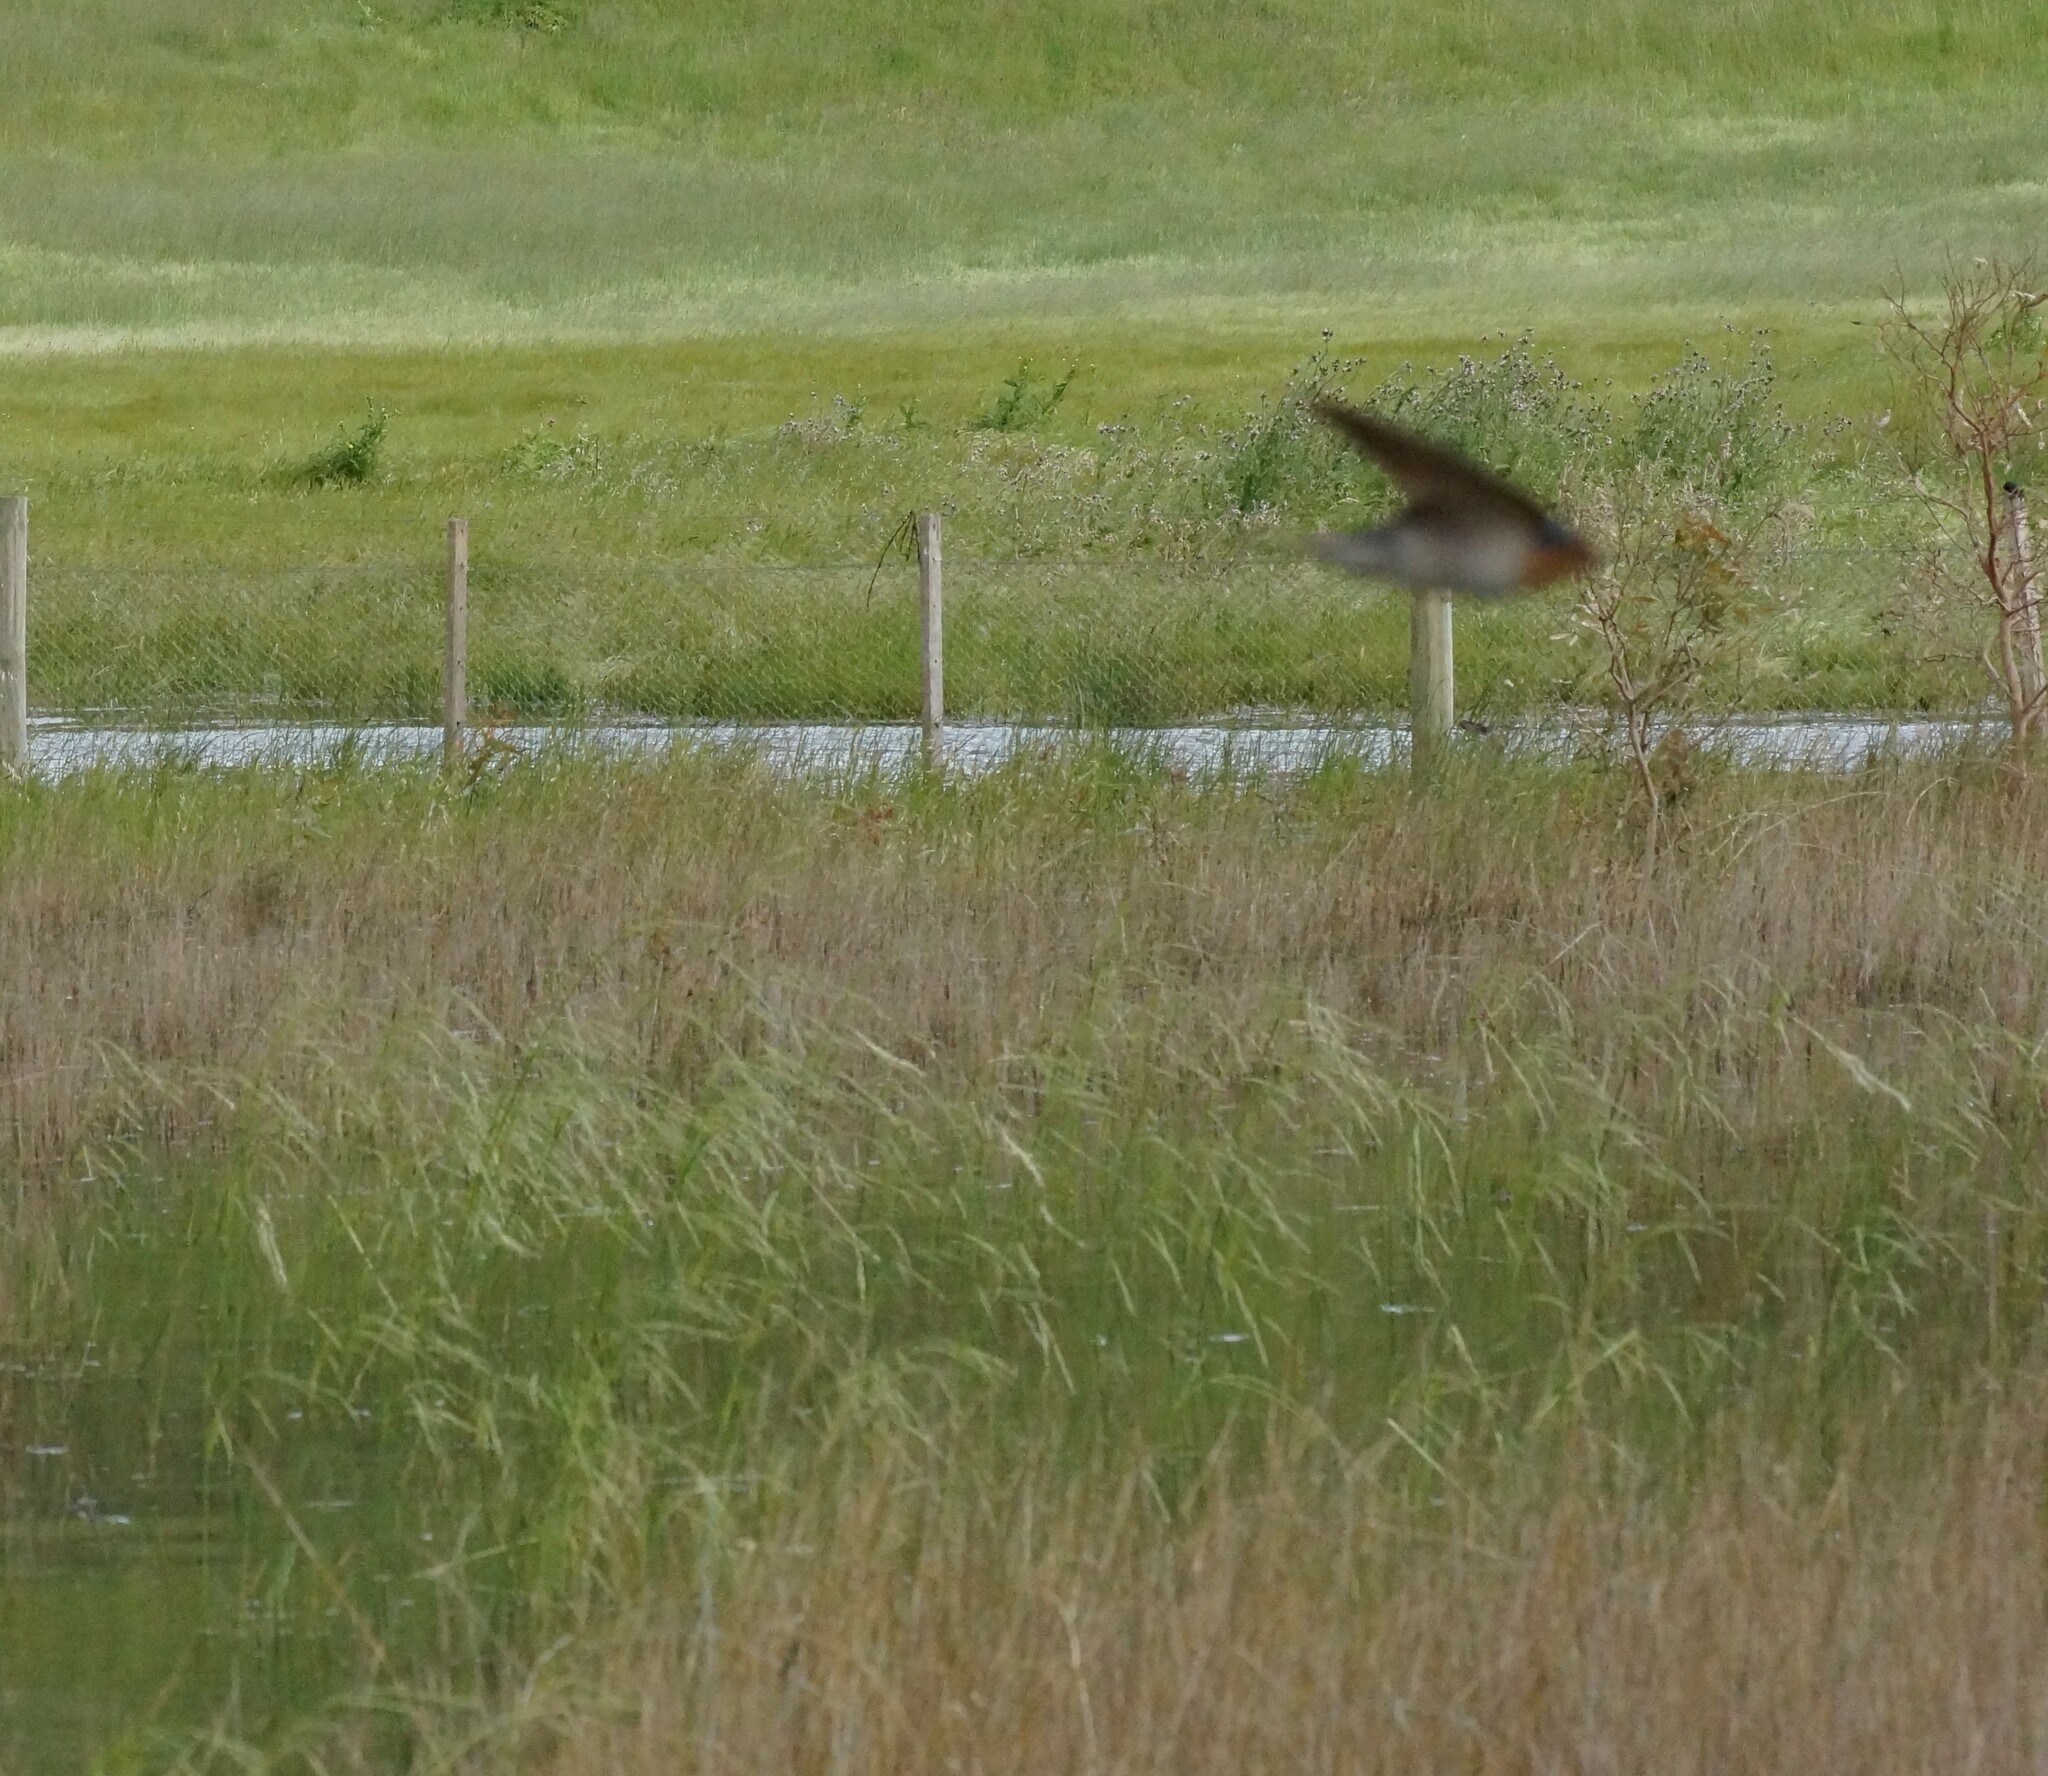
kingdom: Animalia
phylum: Chordata
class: Aves
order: Passeriformes
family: Hirundinidae
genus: Hirundo
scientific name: Hirundo neoxena
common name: Welcome swallow
